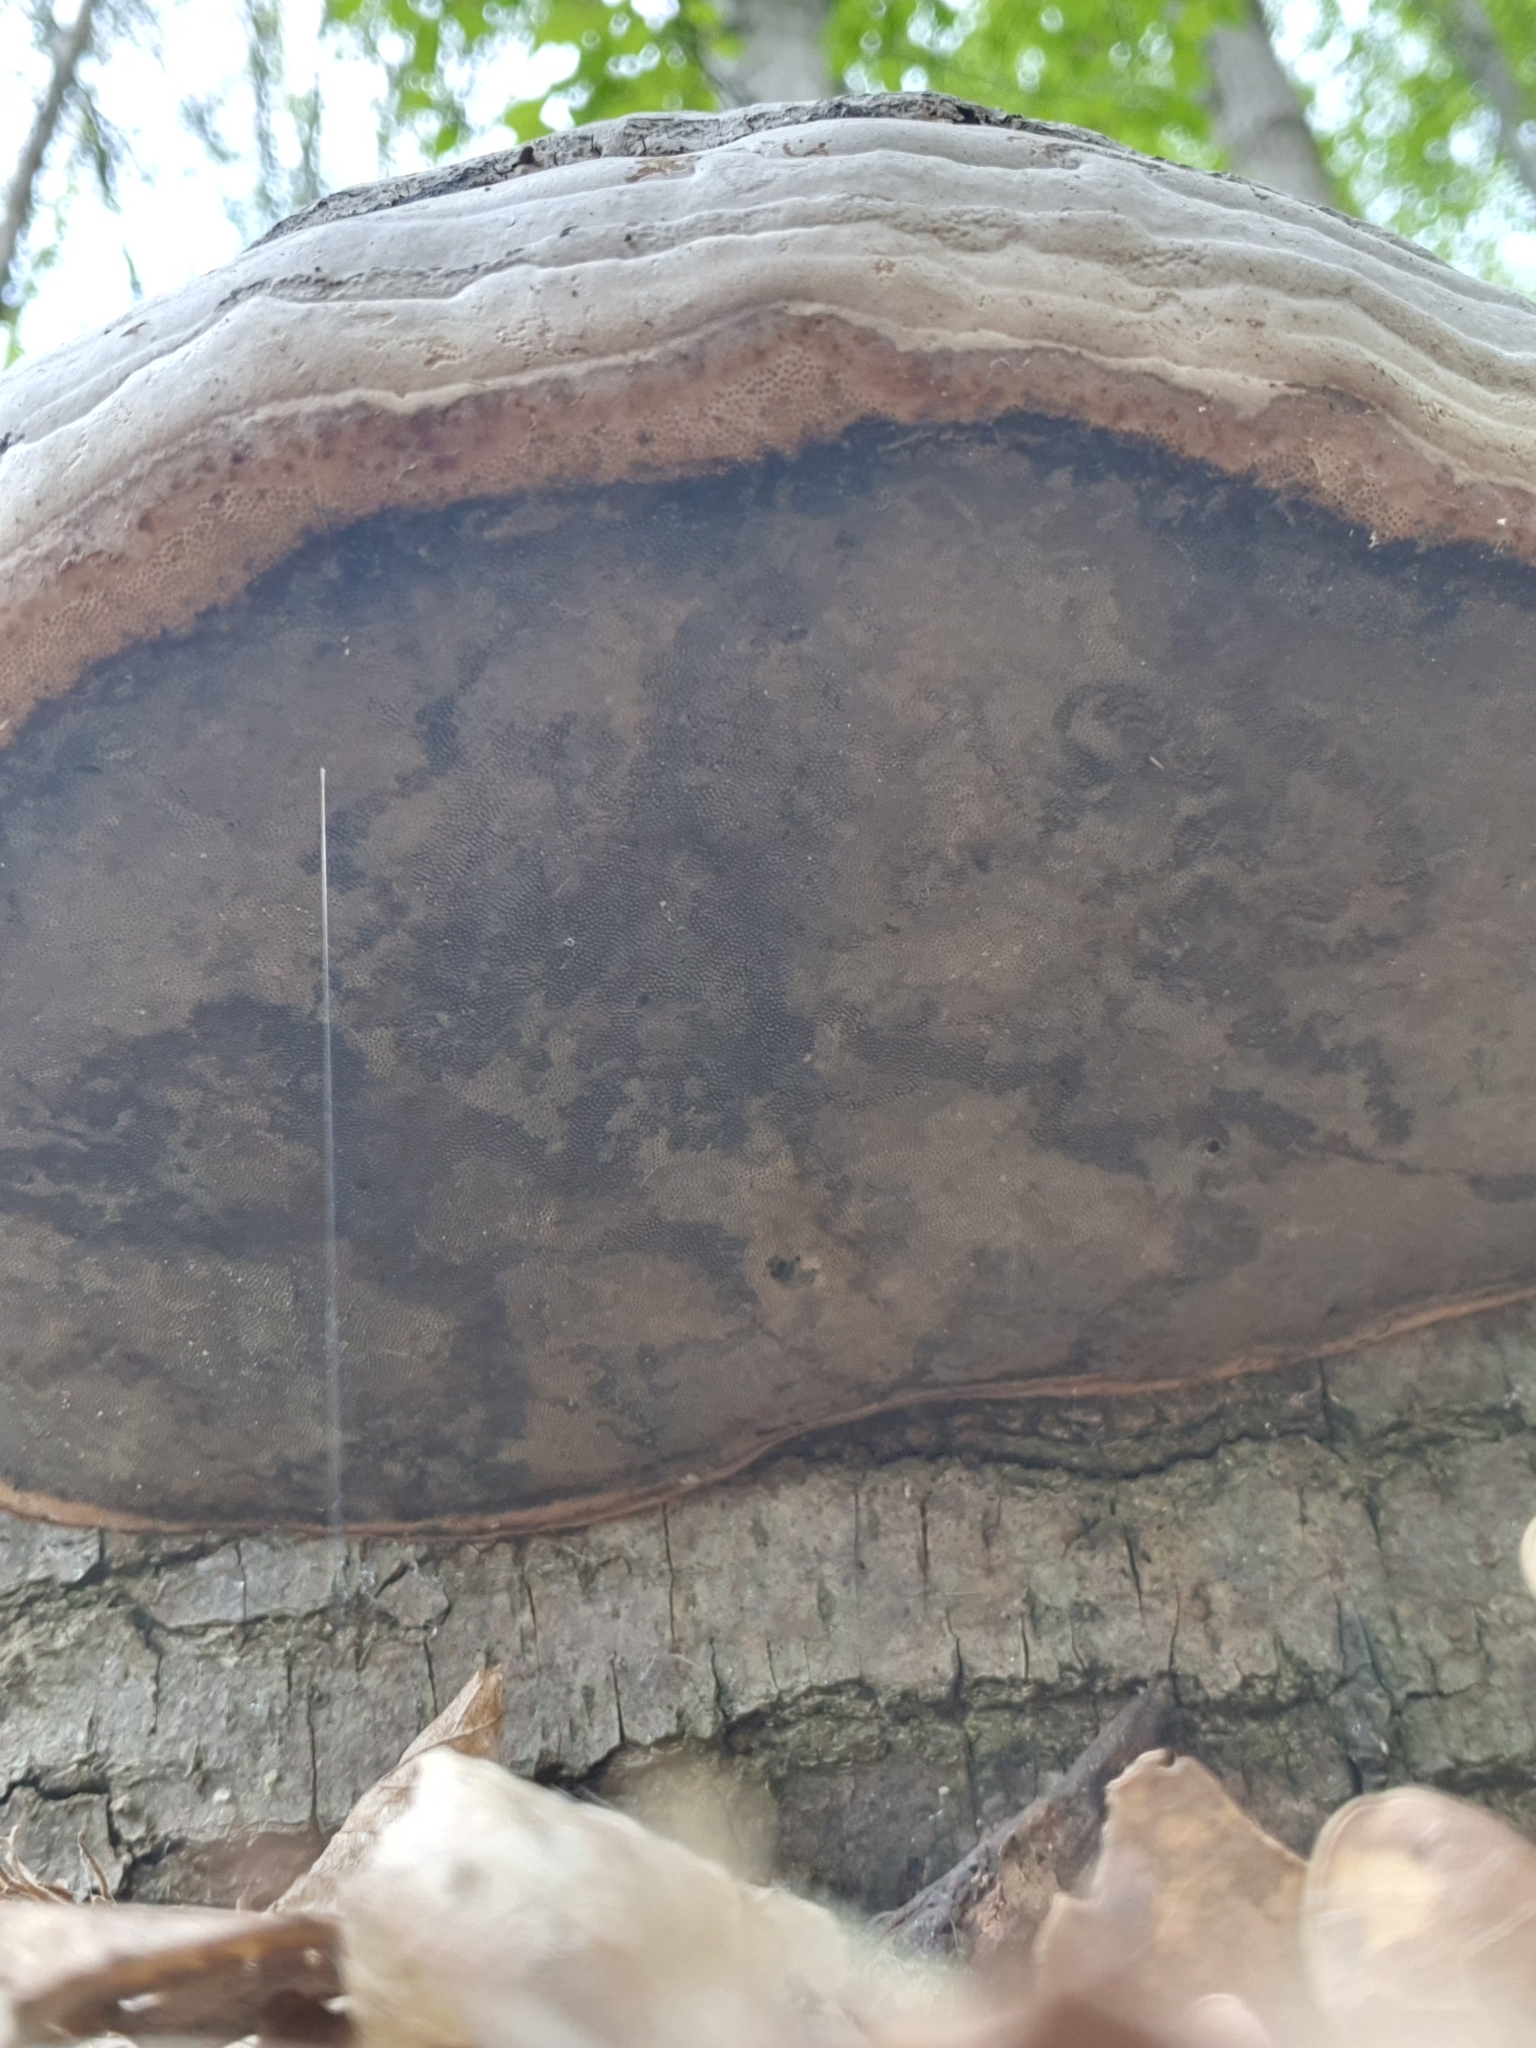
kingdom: Fungi
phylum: Basidiomycota
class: Agaricomycetes
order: Polyporales
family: Polyporaceae
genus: Fomes
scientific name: Fomes fomentarius
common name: Hoof fungus
